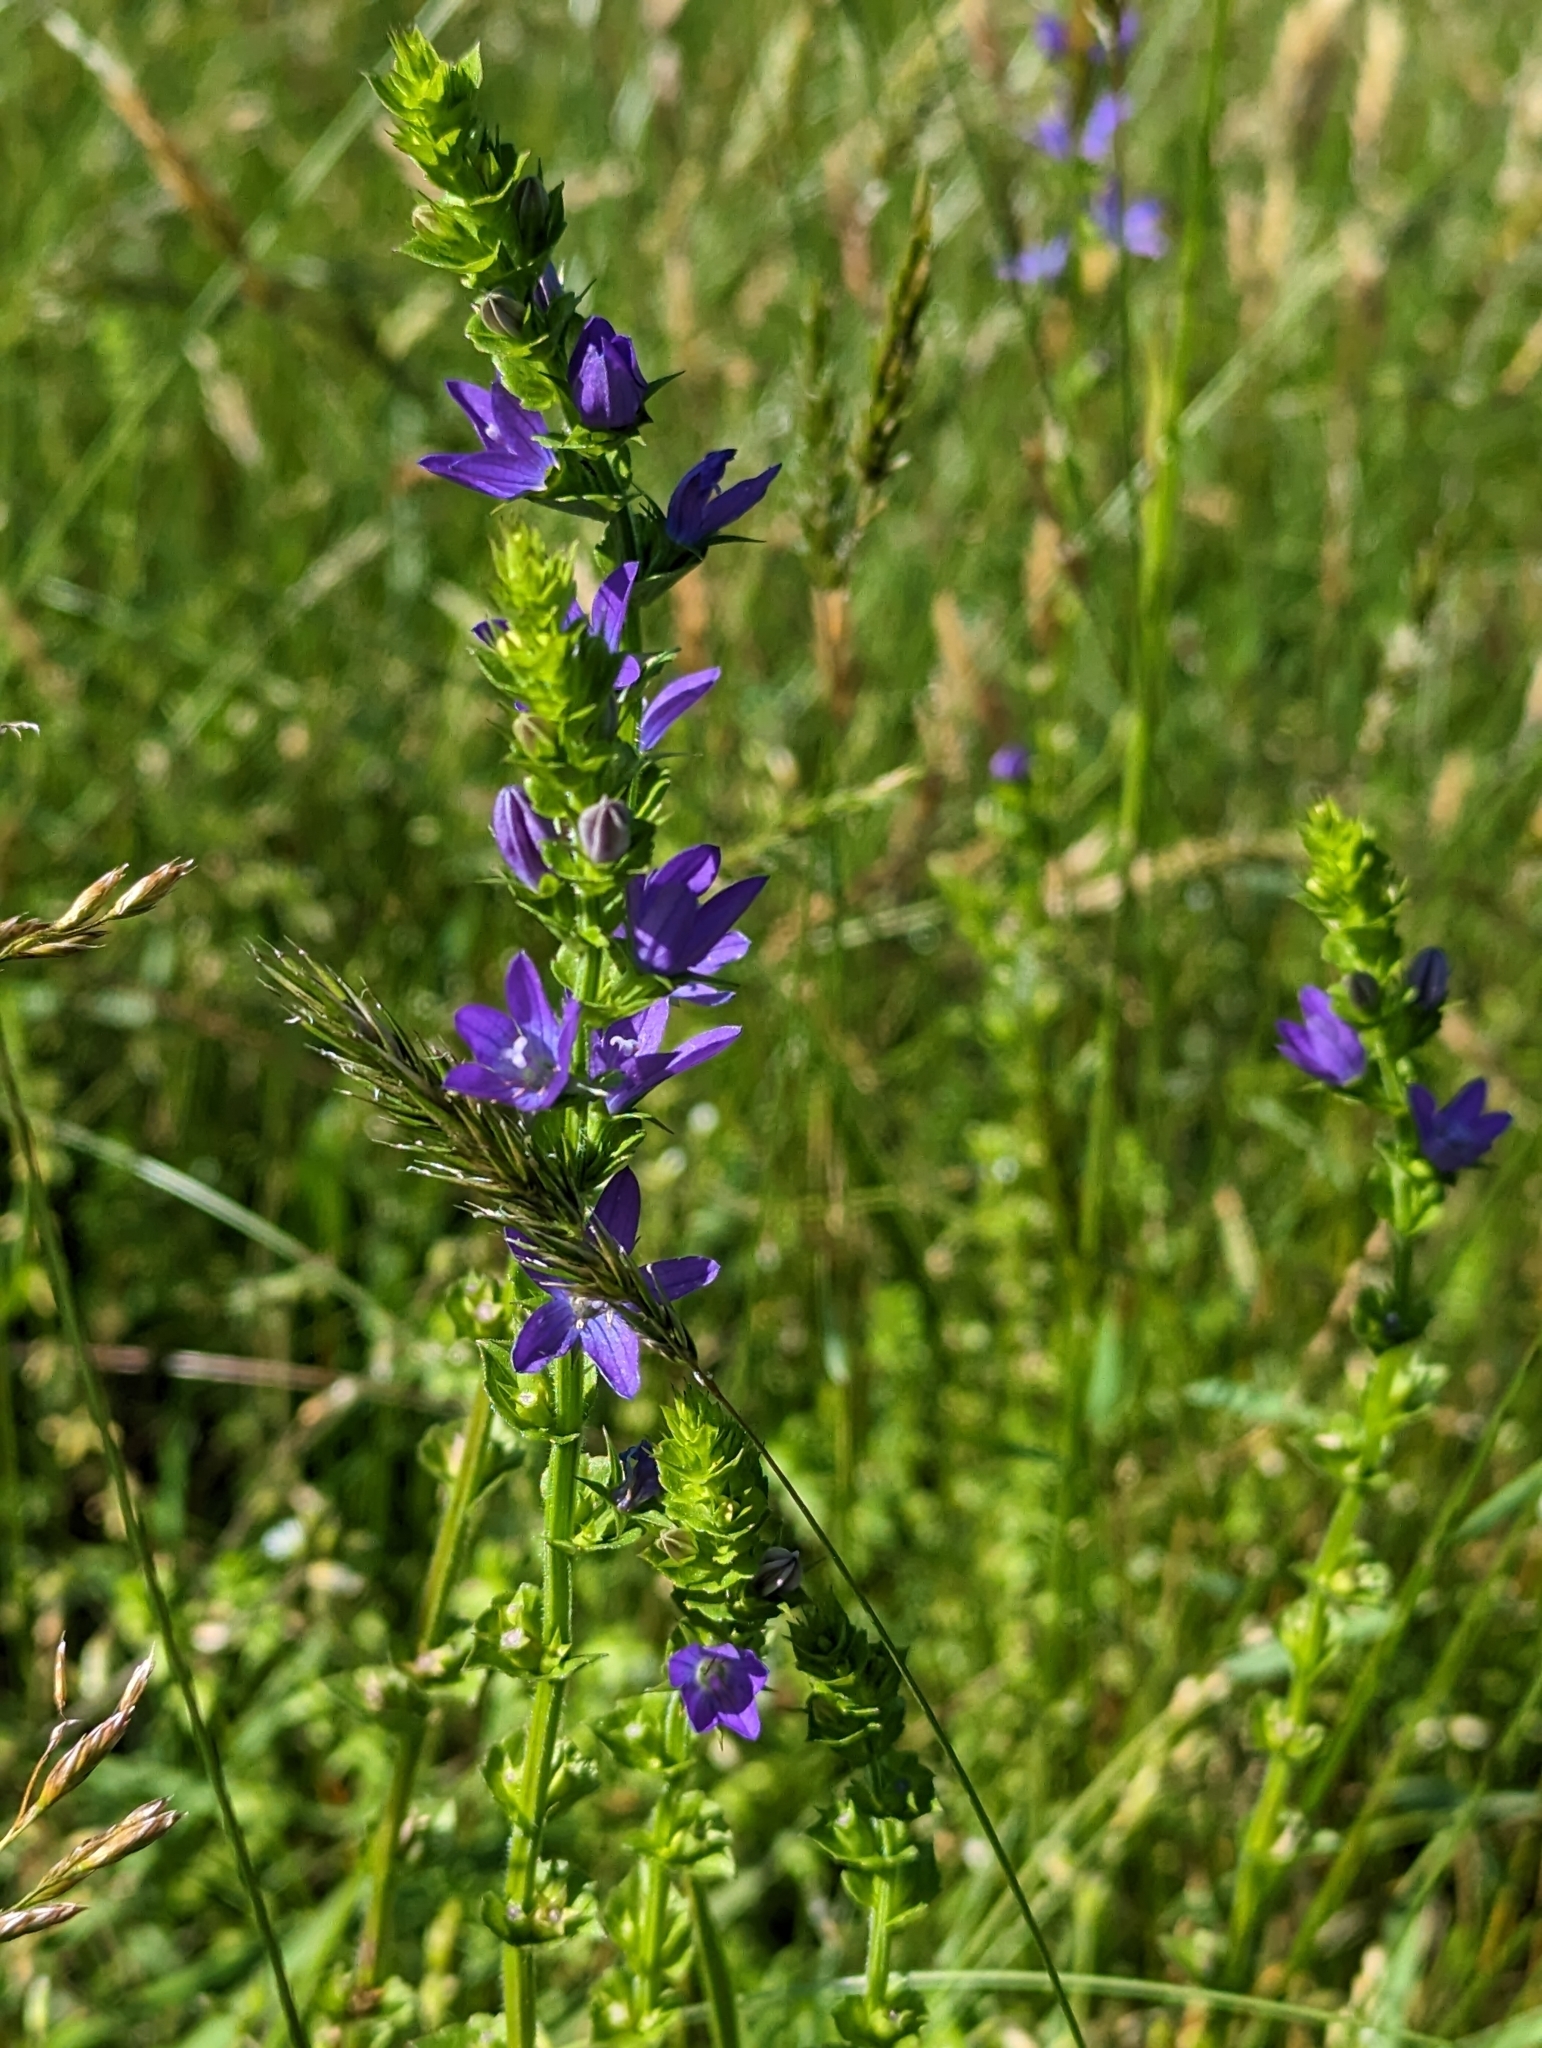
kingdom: Plantae
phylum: Tracheophyta
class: Magnoliopsida
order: Asterales
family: Campanulaceae
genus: Triodanis
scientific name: Triodanis perfoliata
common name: Clasping venus' looking-glass
